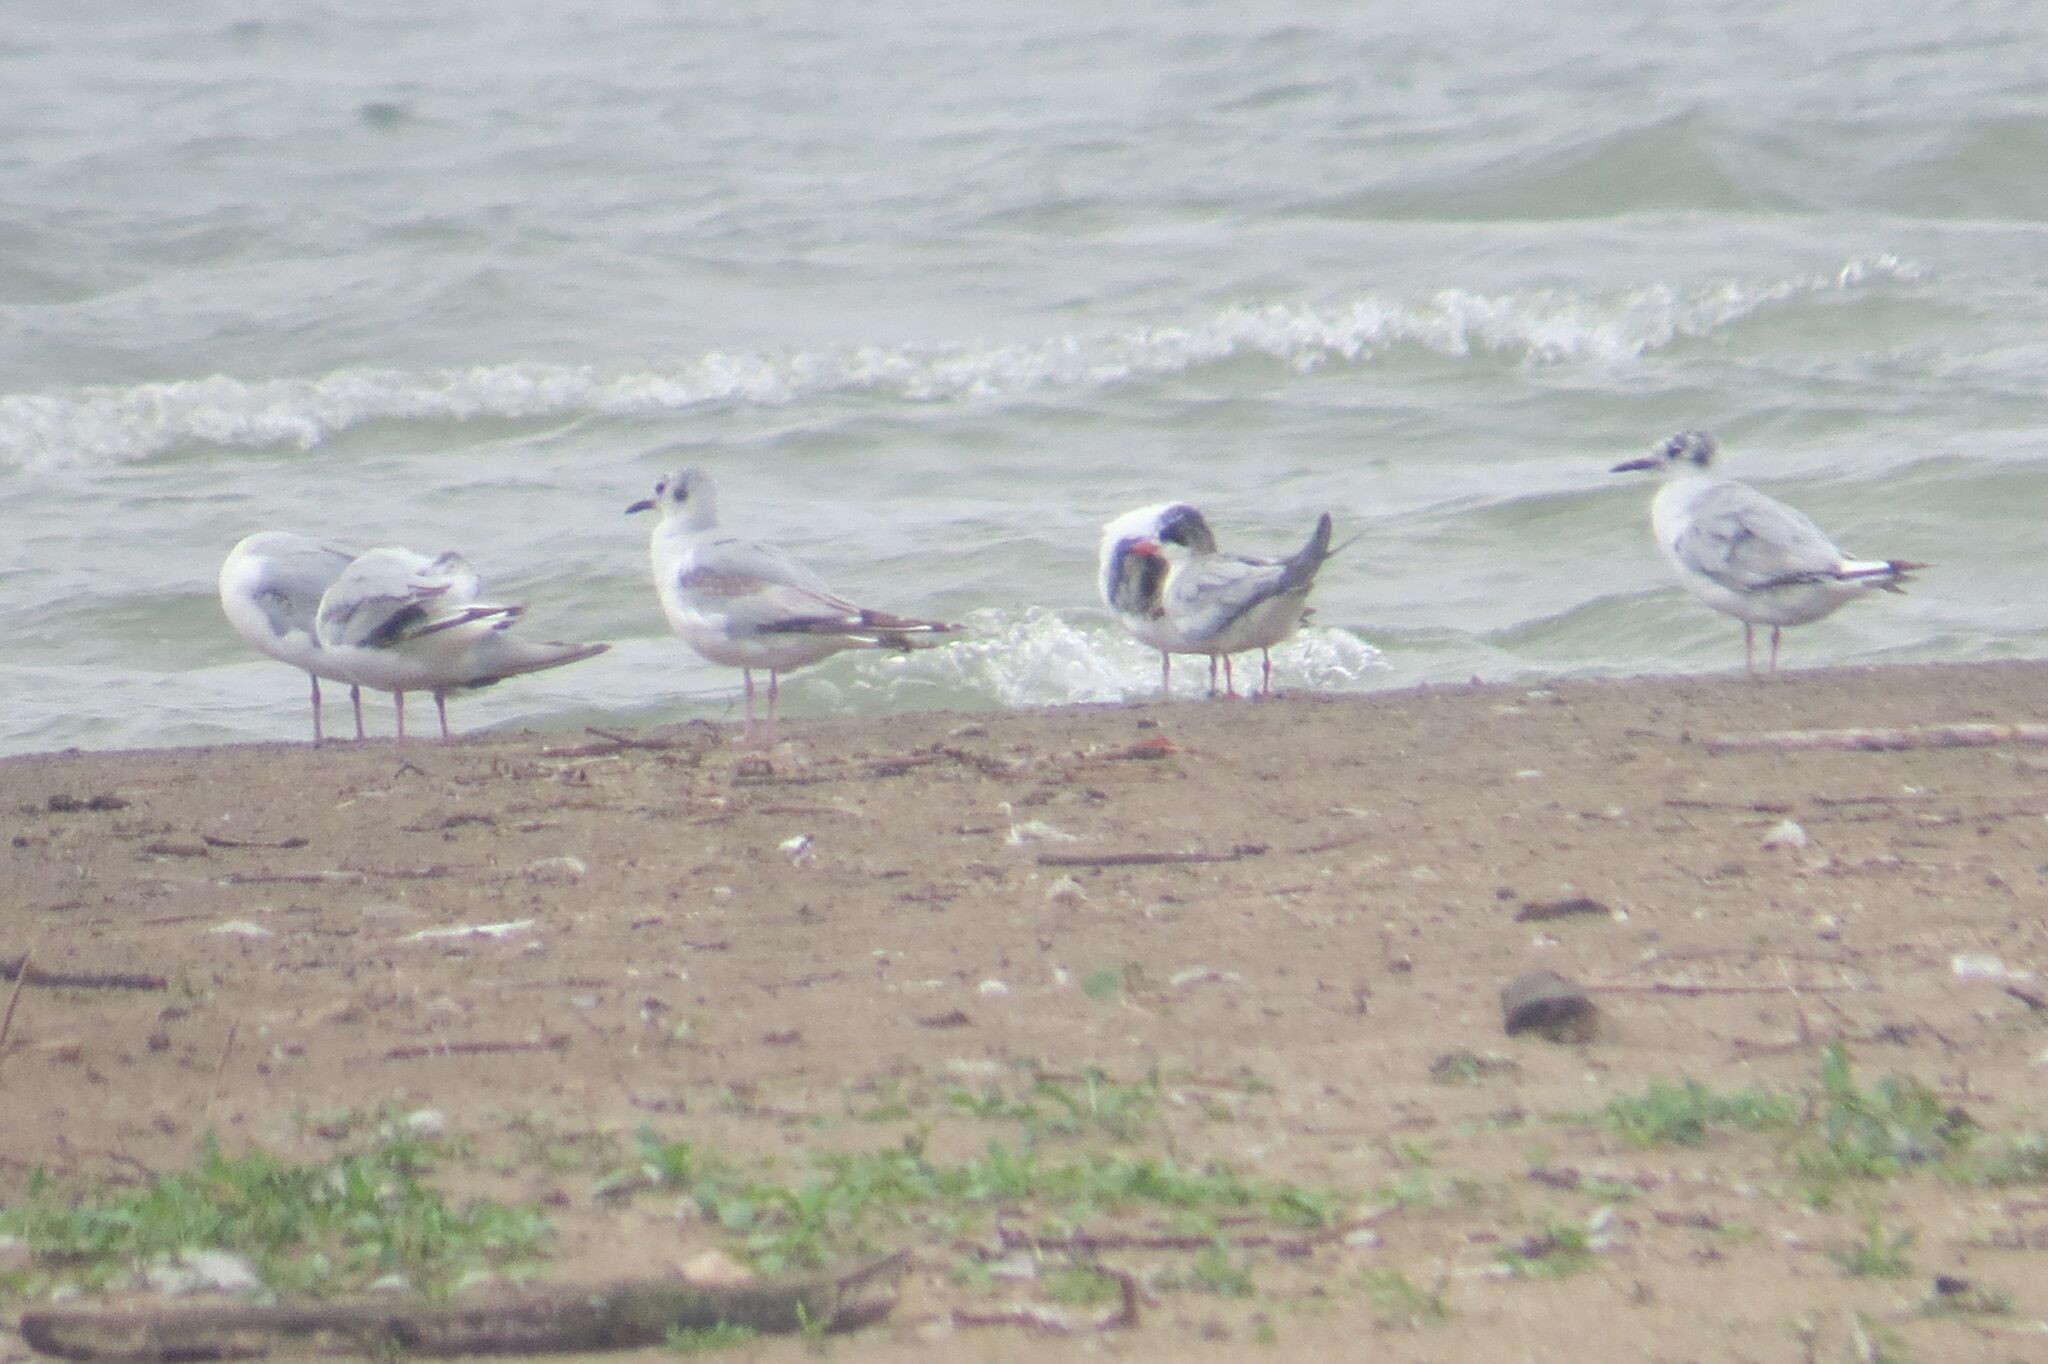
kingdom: Animalia
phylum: Chordata
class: Aves
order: Charadriiformes
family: Laridae
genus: Chroicocephalus
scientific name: Chroicocephalus philadelphia
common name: Bonaparte's gull
